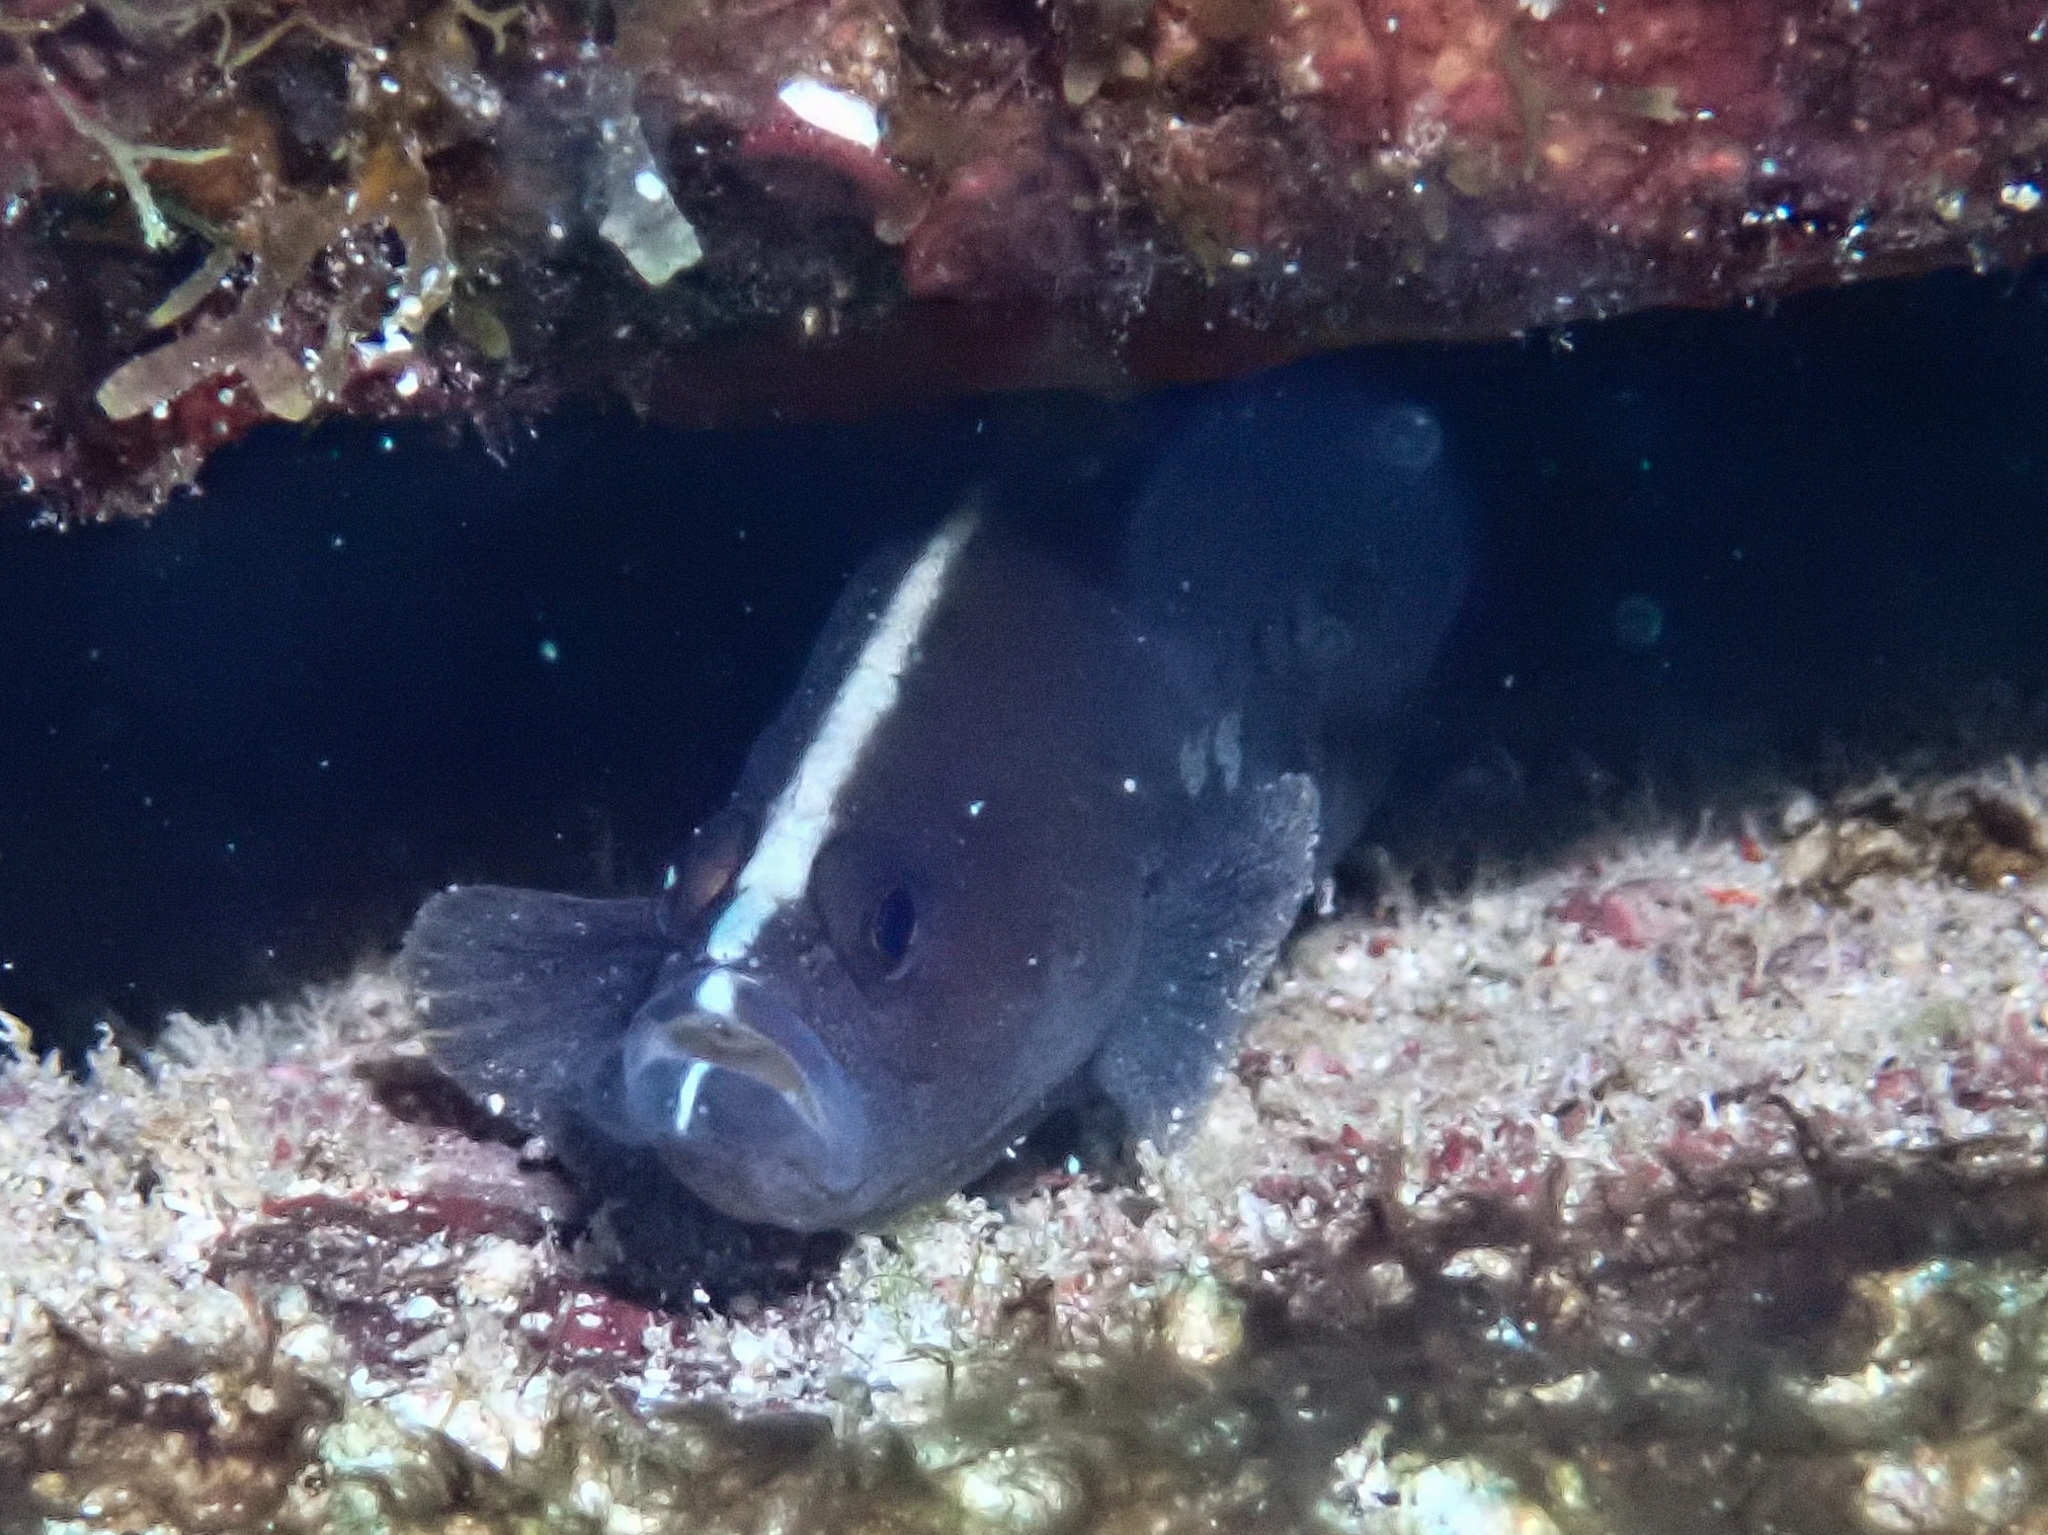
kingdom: Animalia
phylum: Chordata
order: Perciformes
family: Serranidae
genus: Rypticus
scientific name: Rypticus saponaceus
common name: Soapfish
